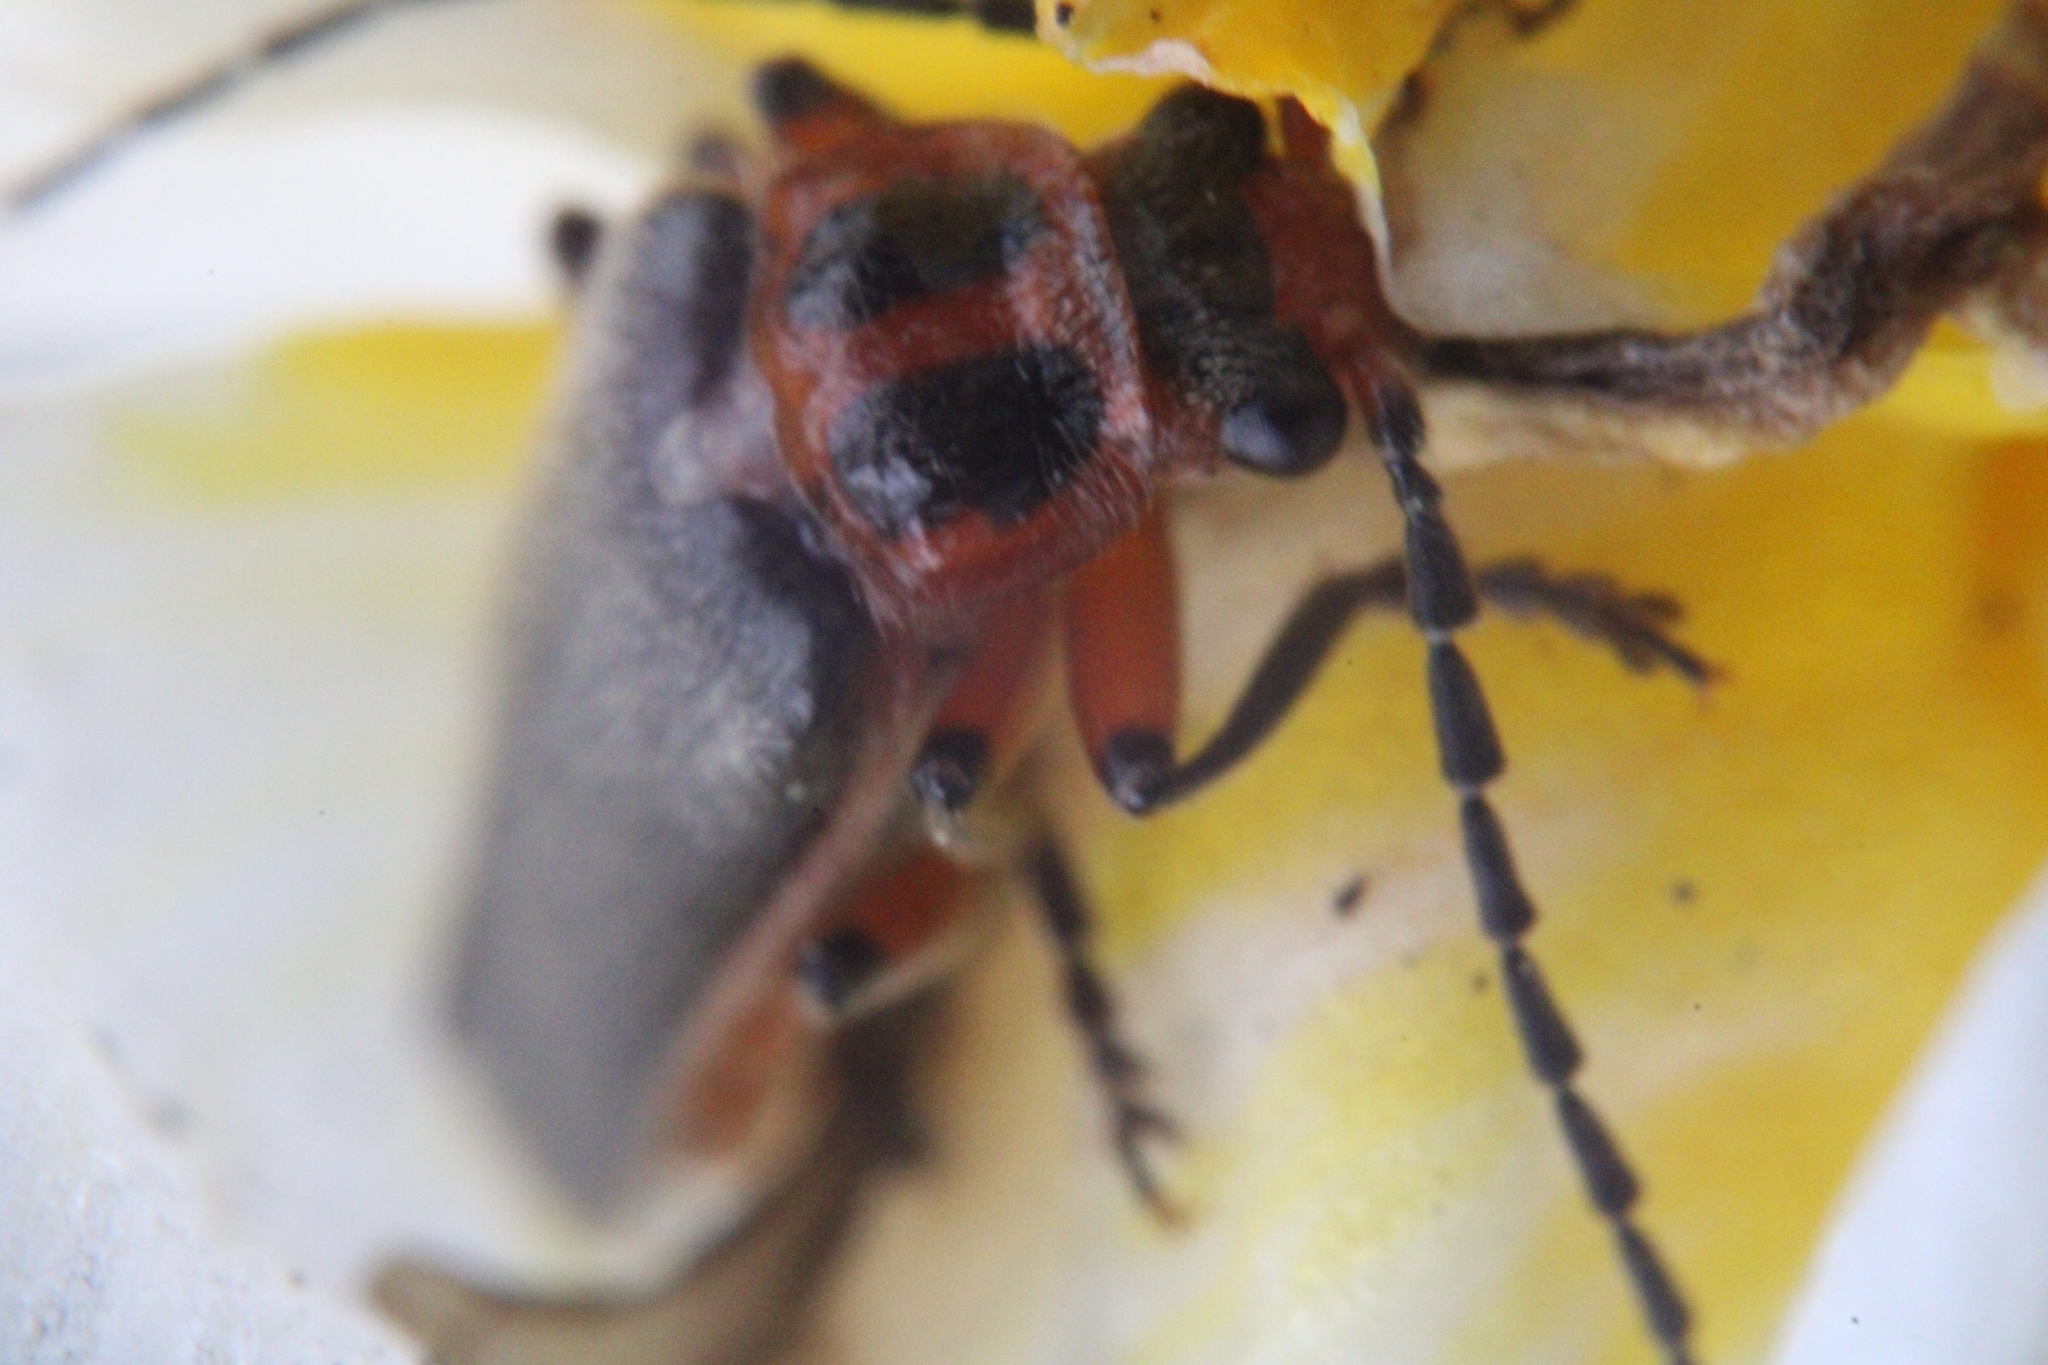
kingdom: Animalia
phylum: Arthropoda
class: Insecta
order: Coleoptera
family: Cantharidae
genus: Atalantycha
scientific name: Atalantycha bilineata
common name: Two-lined leatherwing
